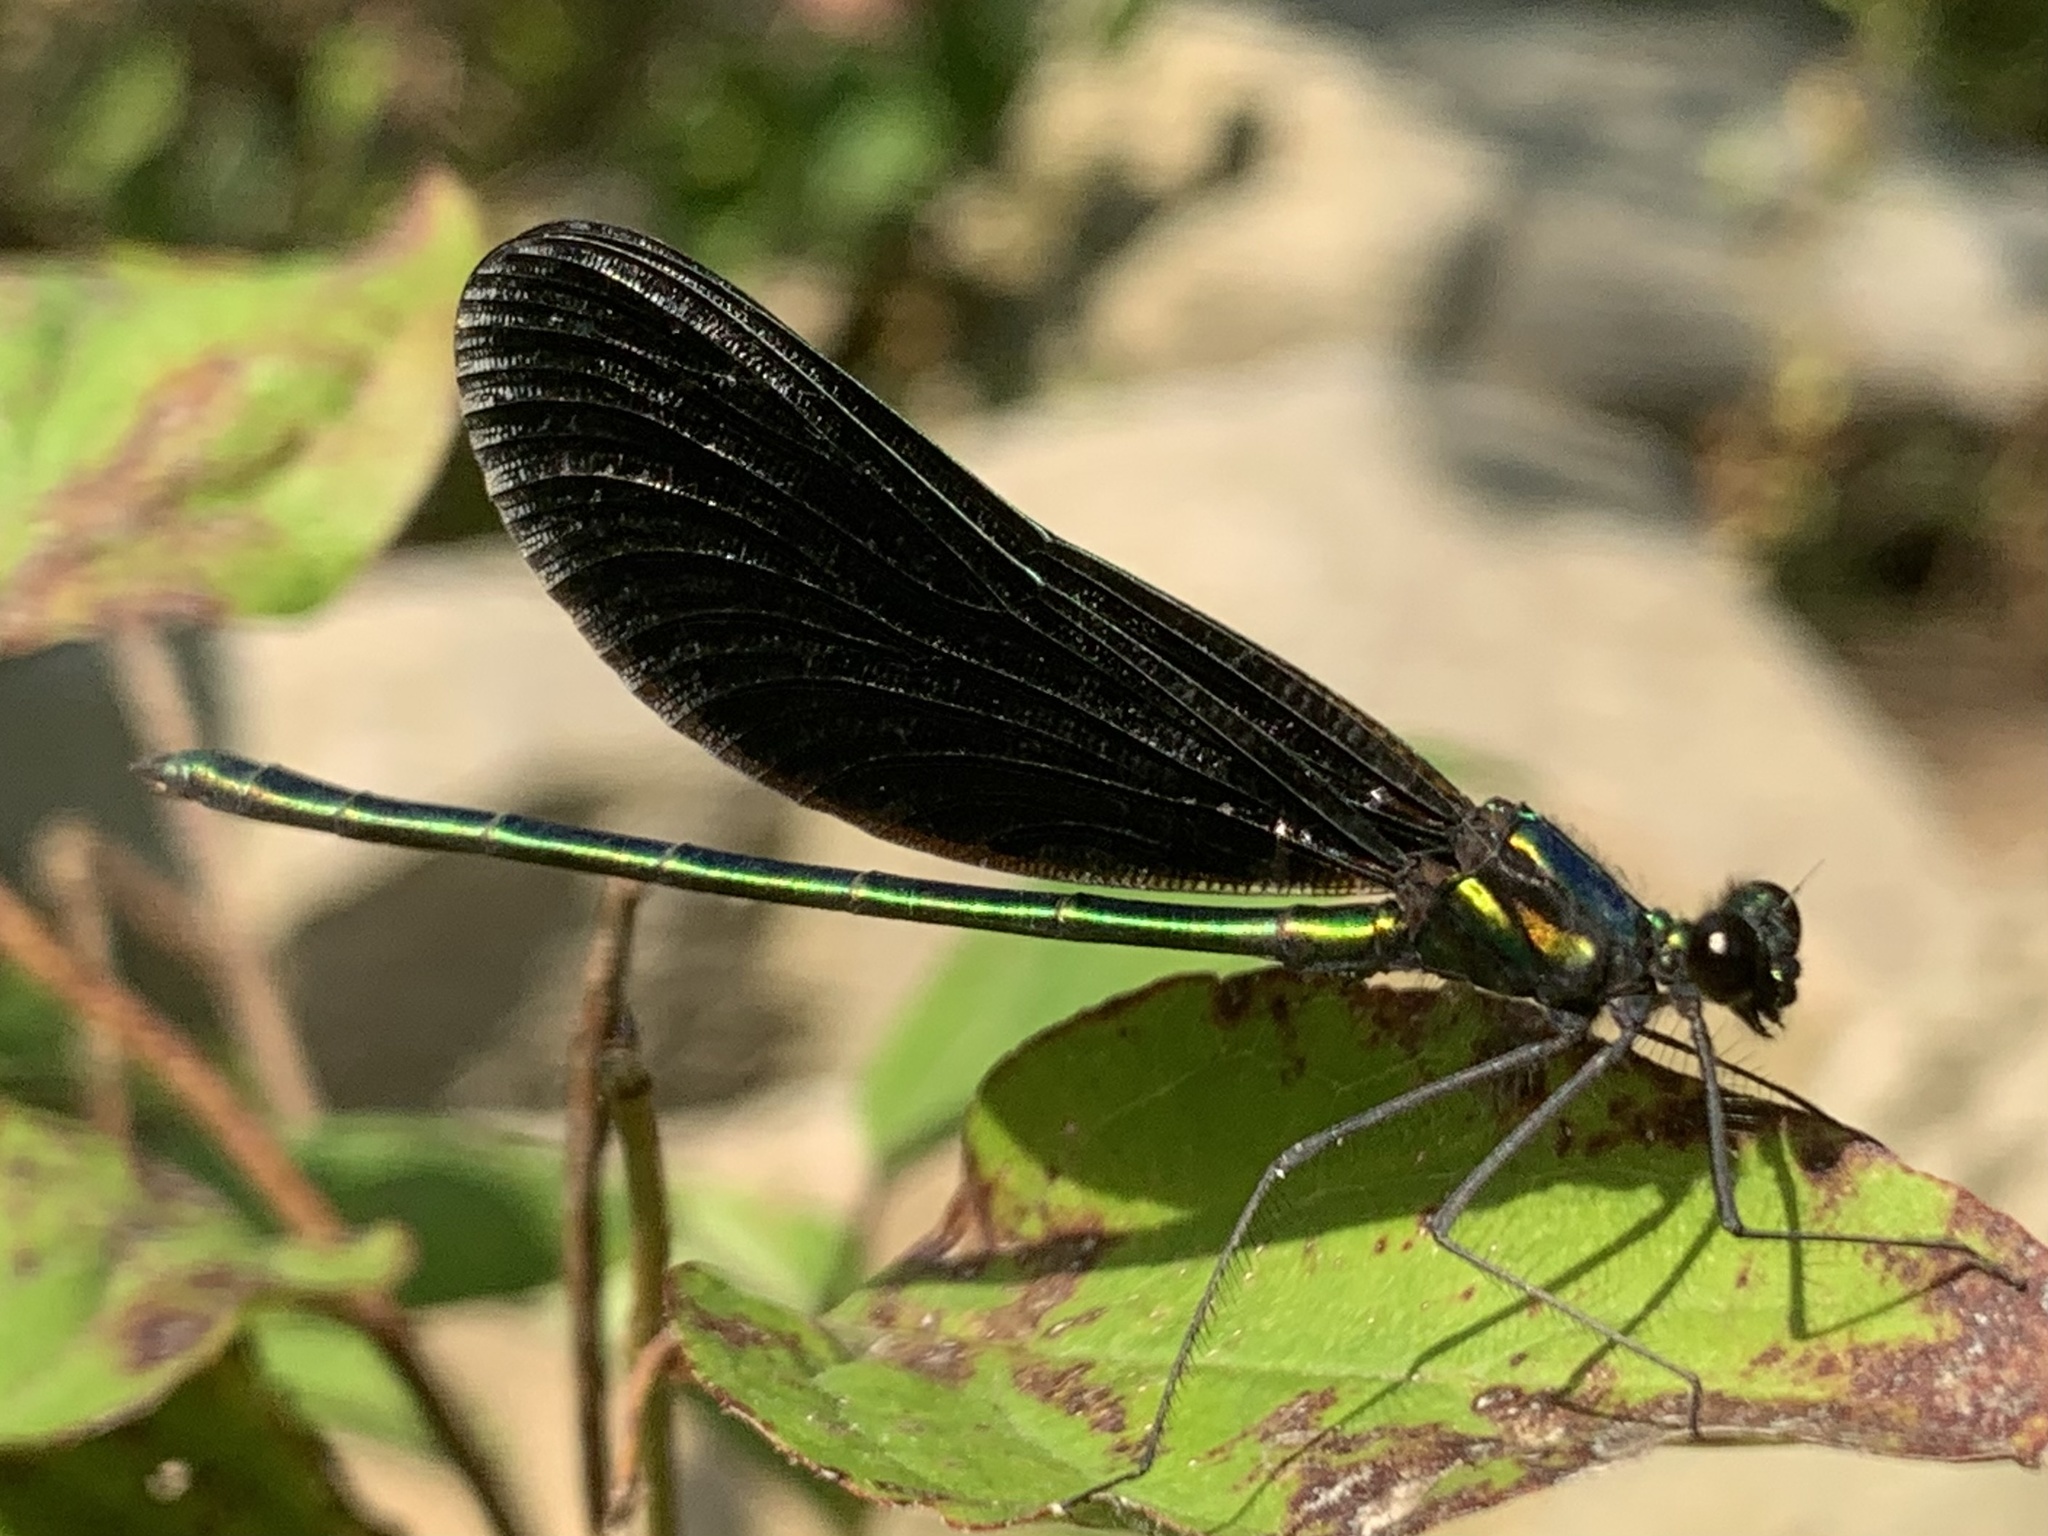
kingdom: Animalia
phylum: Arthropoda
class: Insecta
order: Odonata
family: Calopterygidae
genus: Calopteryx
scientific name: Calopteryx maculata
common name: Ebony jewelwing
